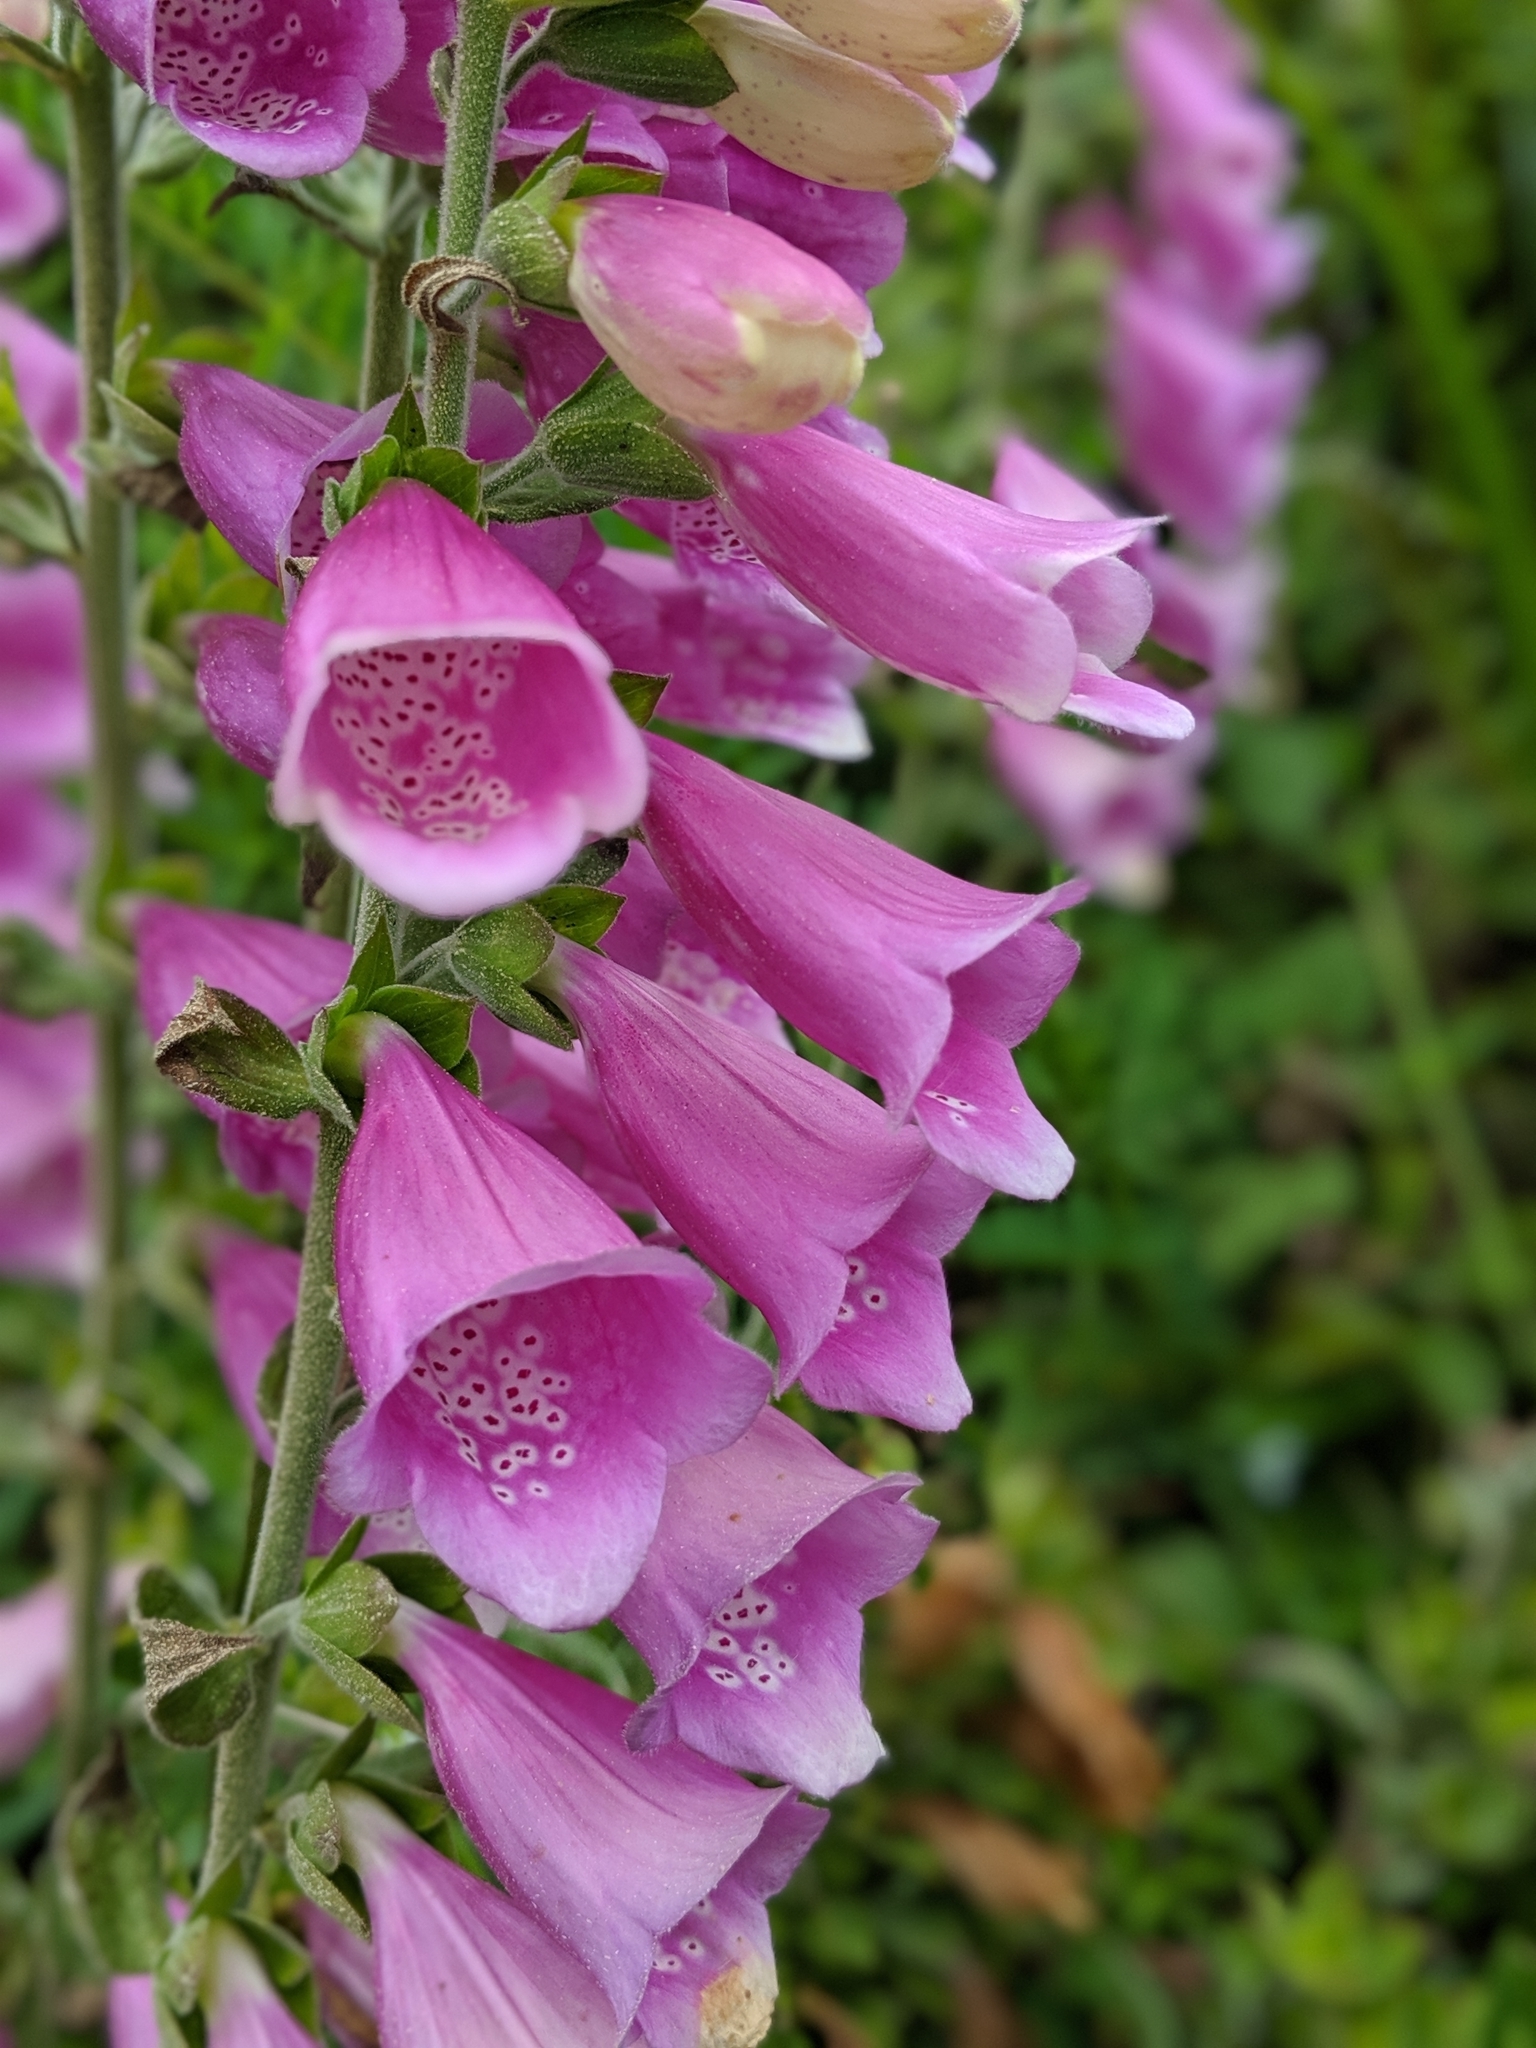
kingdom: Plantae
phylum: Tracheophyta
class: Magnoliopsida
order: Lamiales
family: Plantaginaceae
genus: Digitalis
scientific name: Digitalis purpurea
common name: Foxglove
